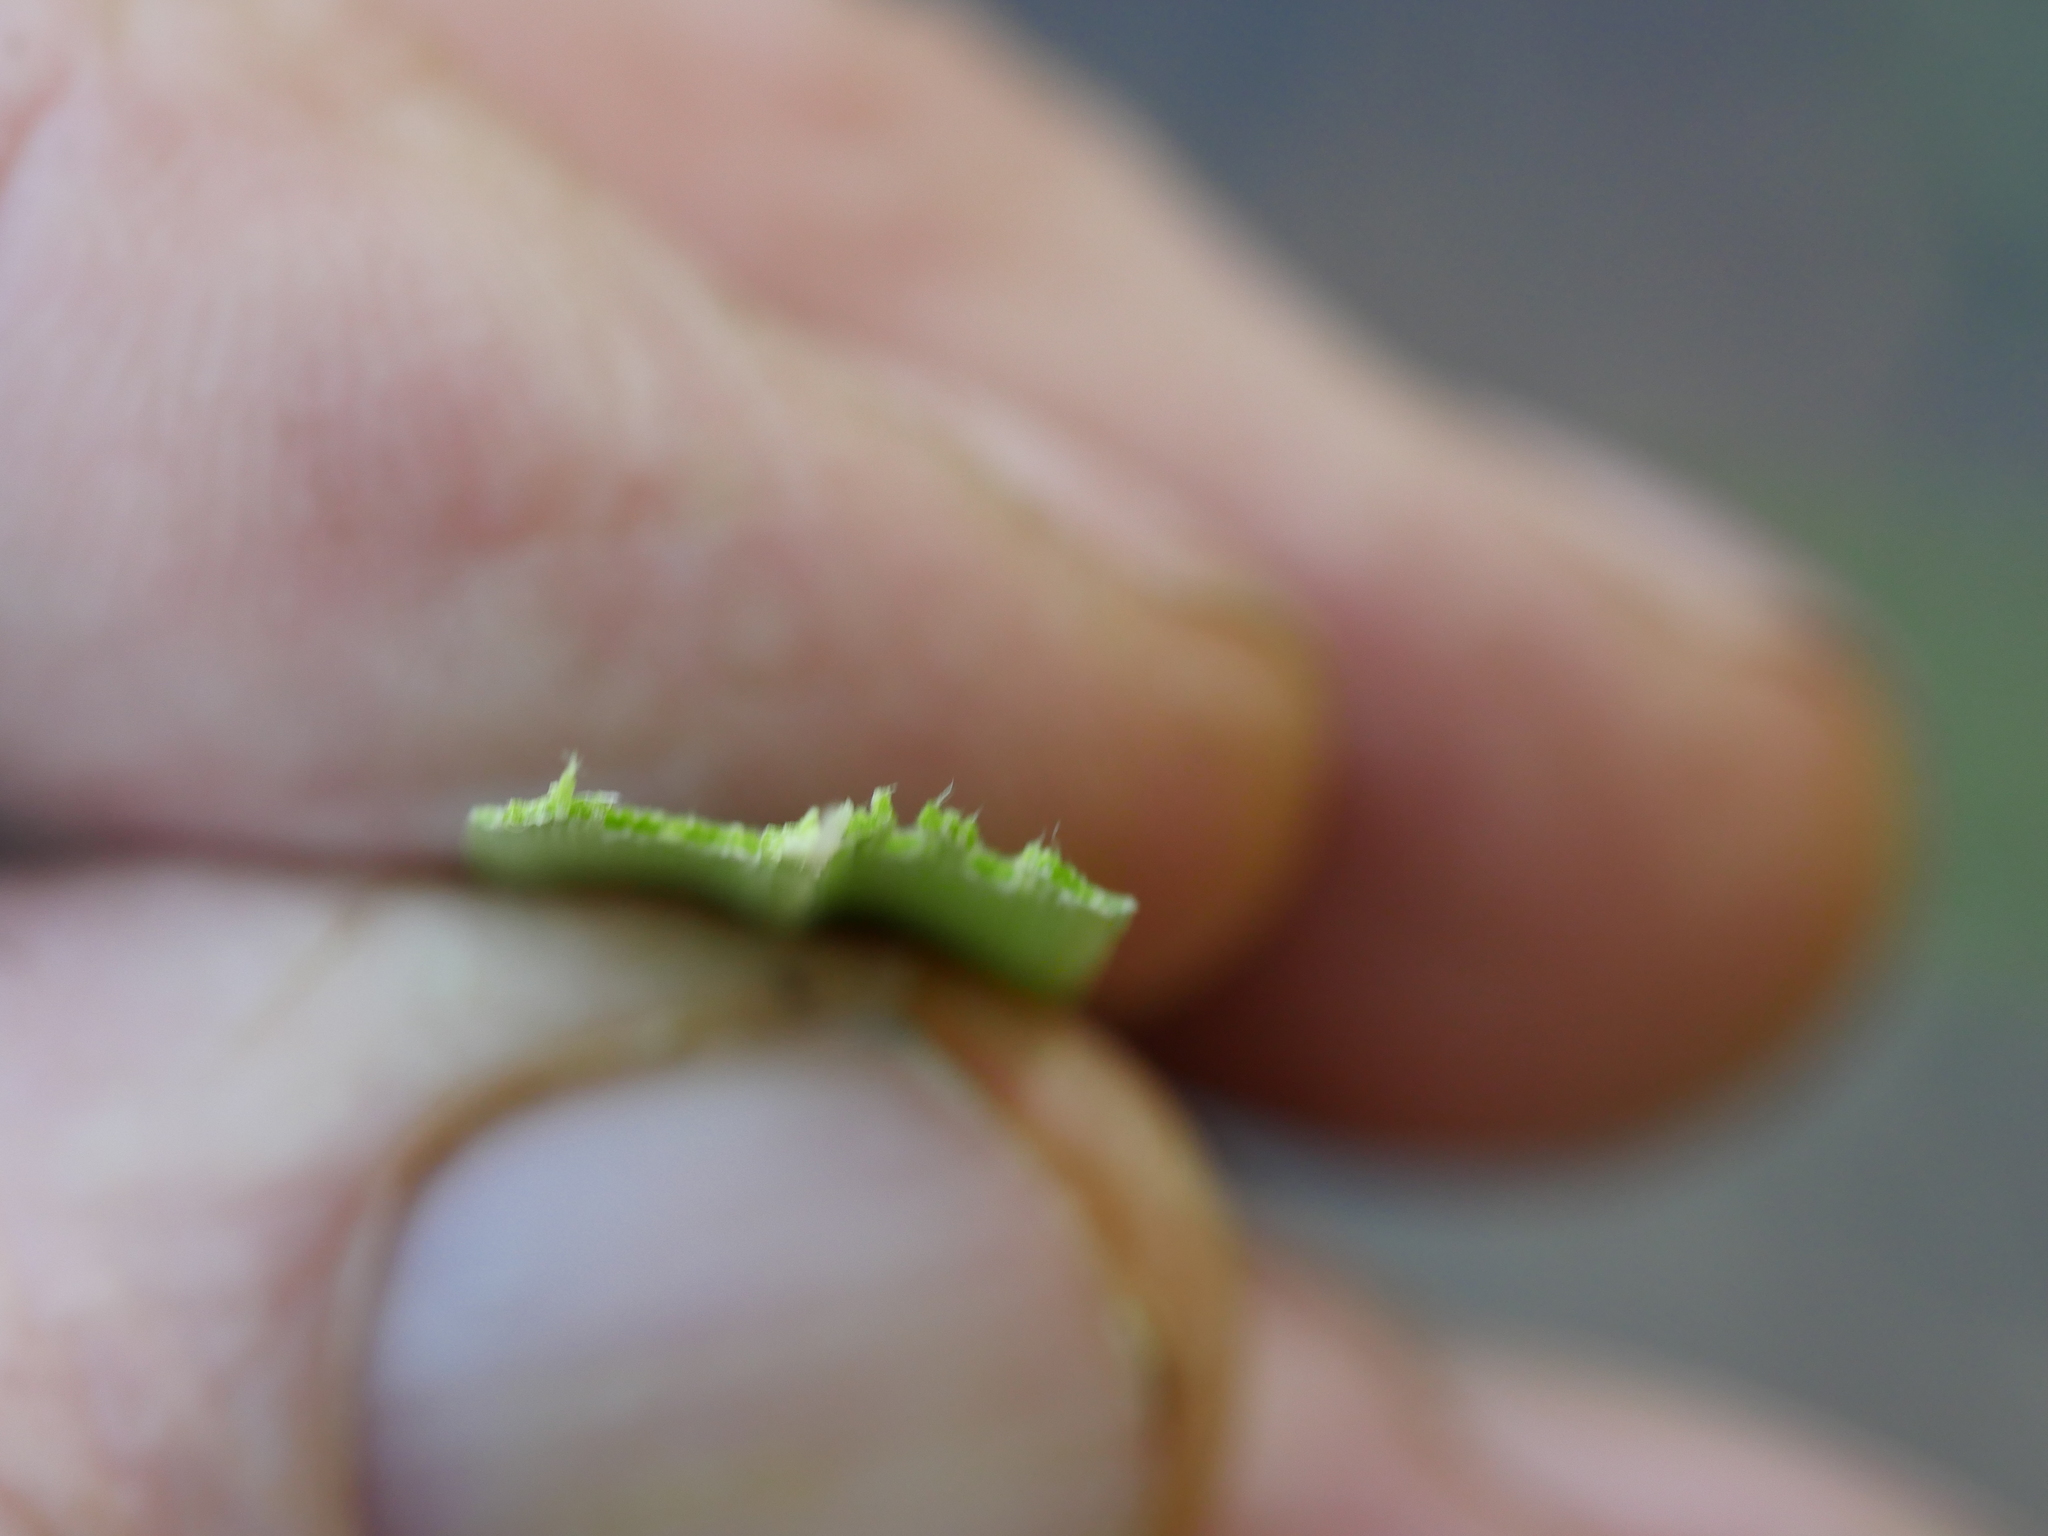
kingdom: Plantae
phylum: Tracheophyta
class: Liliopsida
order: Poales
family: Poaceae
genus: Cortaderia
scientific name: Cortaderia jubata
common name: Purple pampas grass
